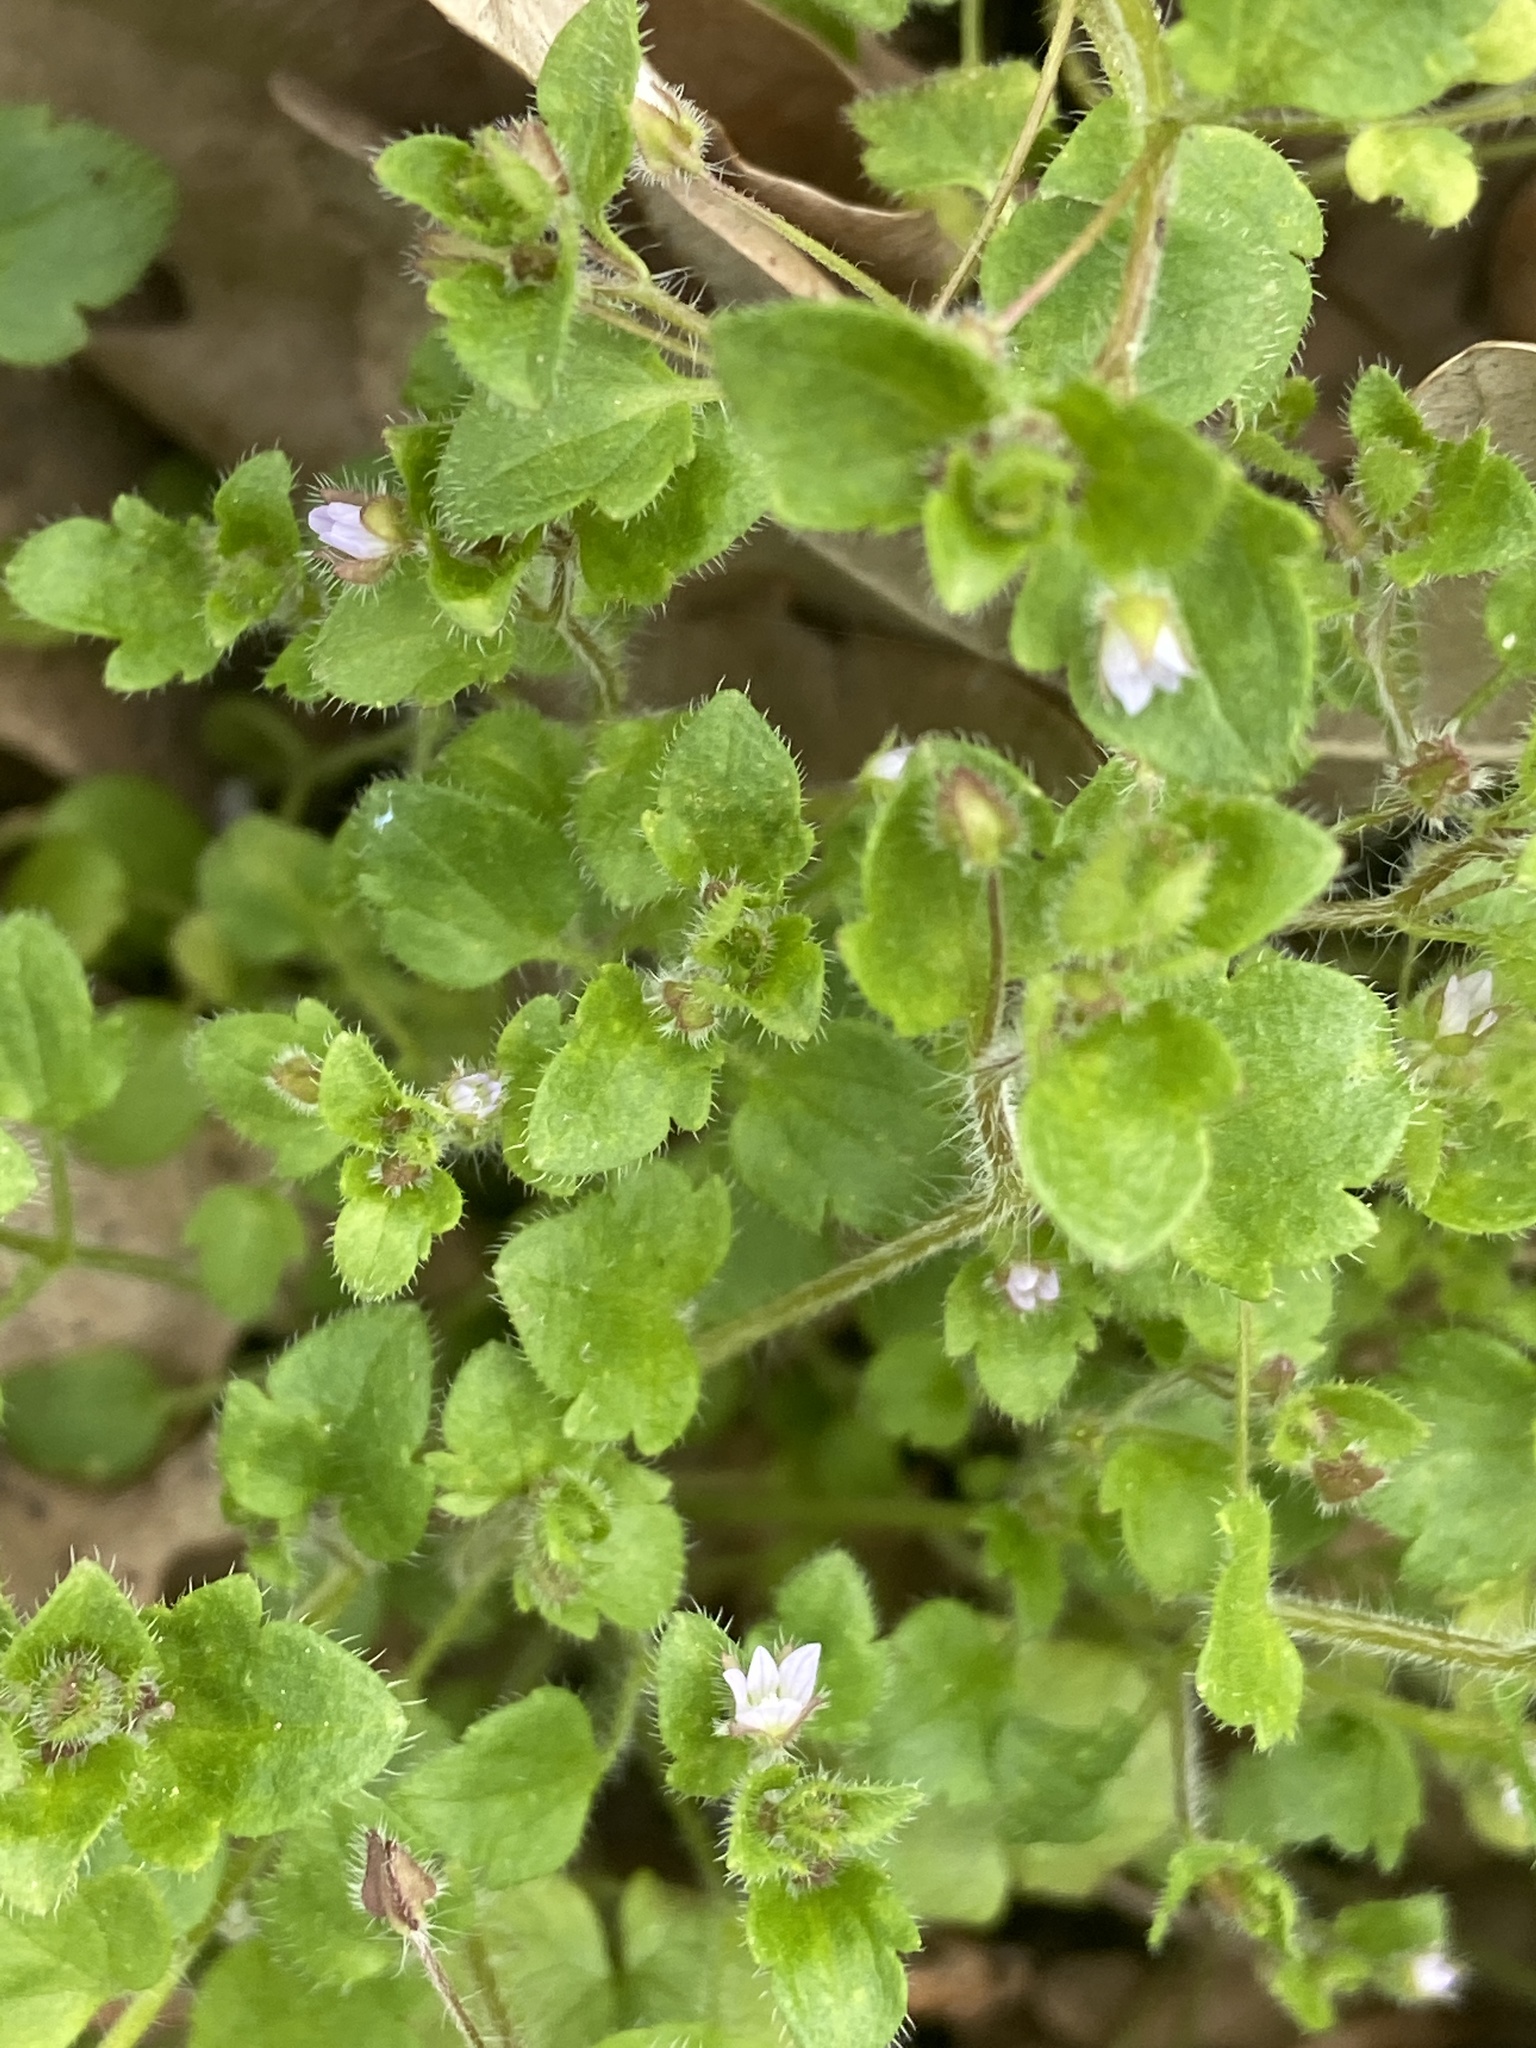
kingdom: Plantae
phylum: Tracheophyta
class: Magnoliopsida
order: Lamiales
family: Plantaginaceae
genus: Veronica
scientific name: Veronica sublobata
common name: False ivy-leaved speedwell
